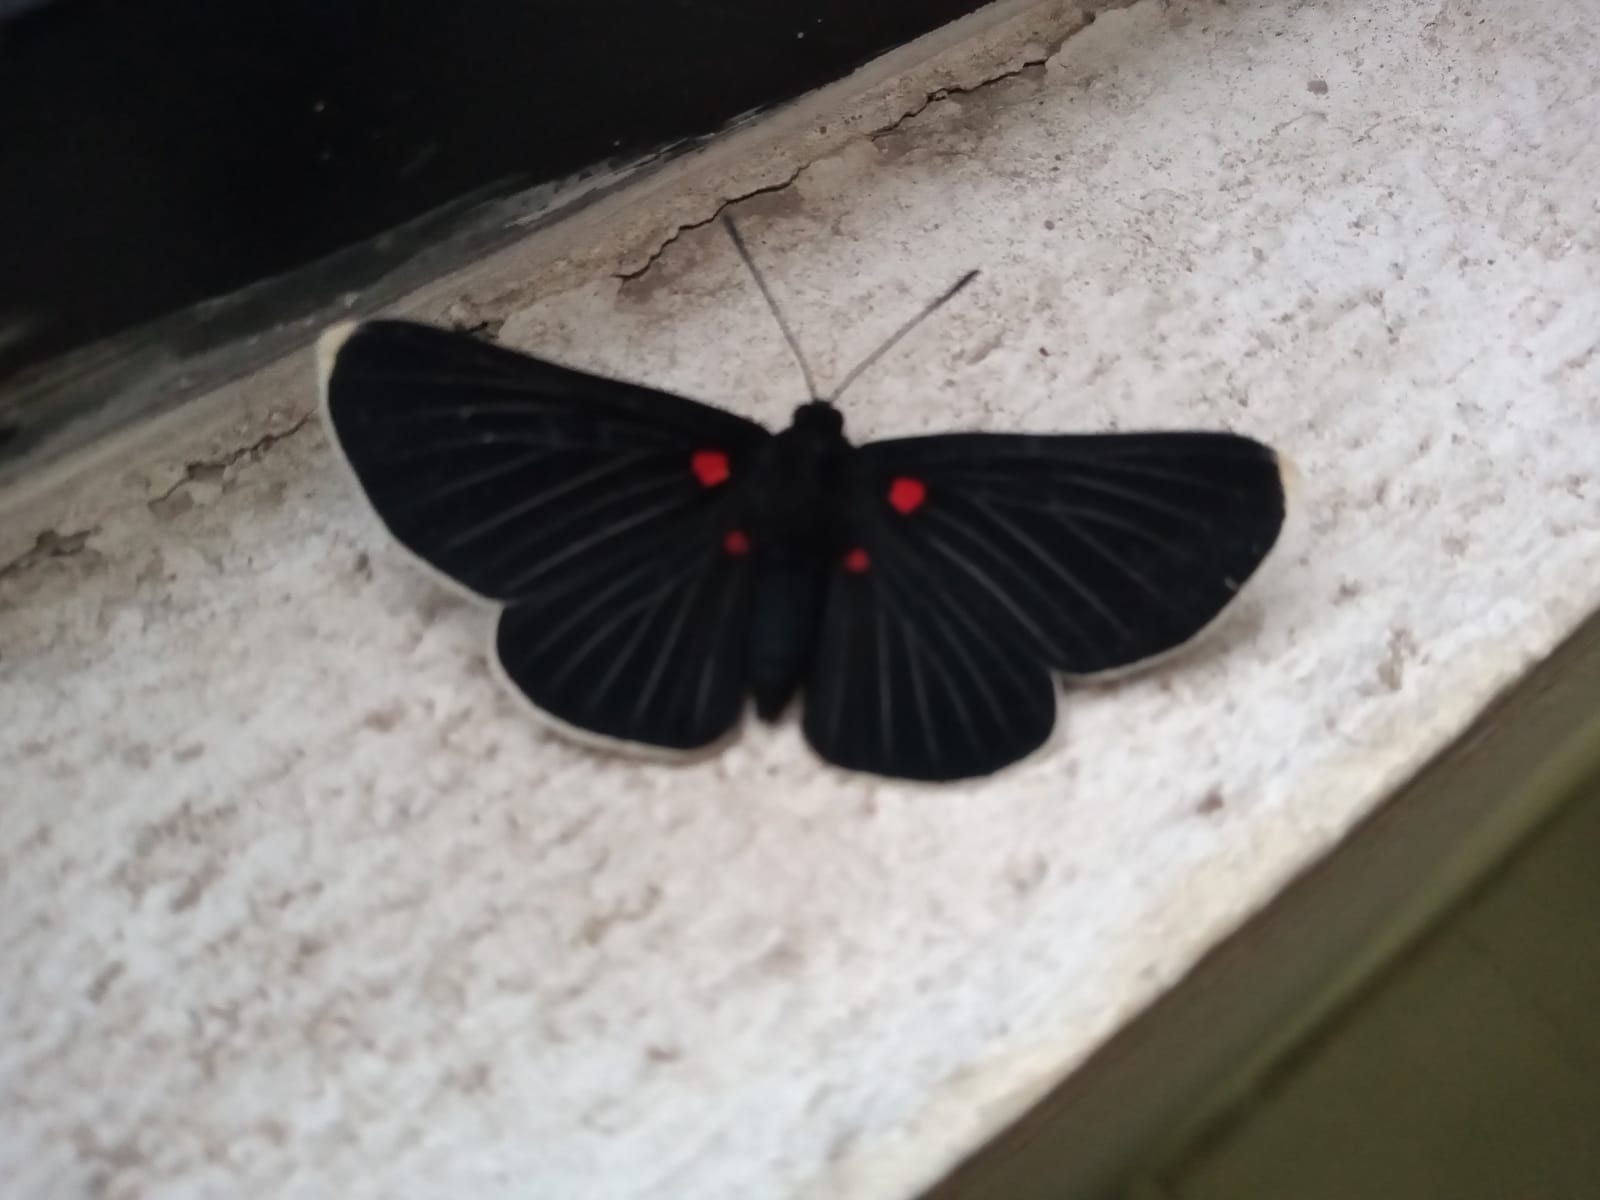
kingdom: Animalia
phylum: Arthropoda
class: Insecta
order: Lepidoptera
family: Lycaenidae
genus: Melanis
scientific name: Melanis
